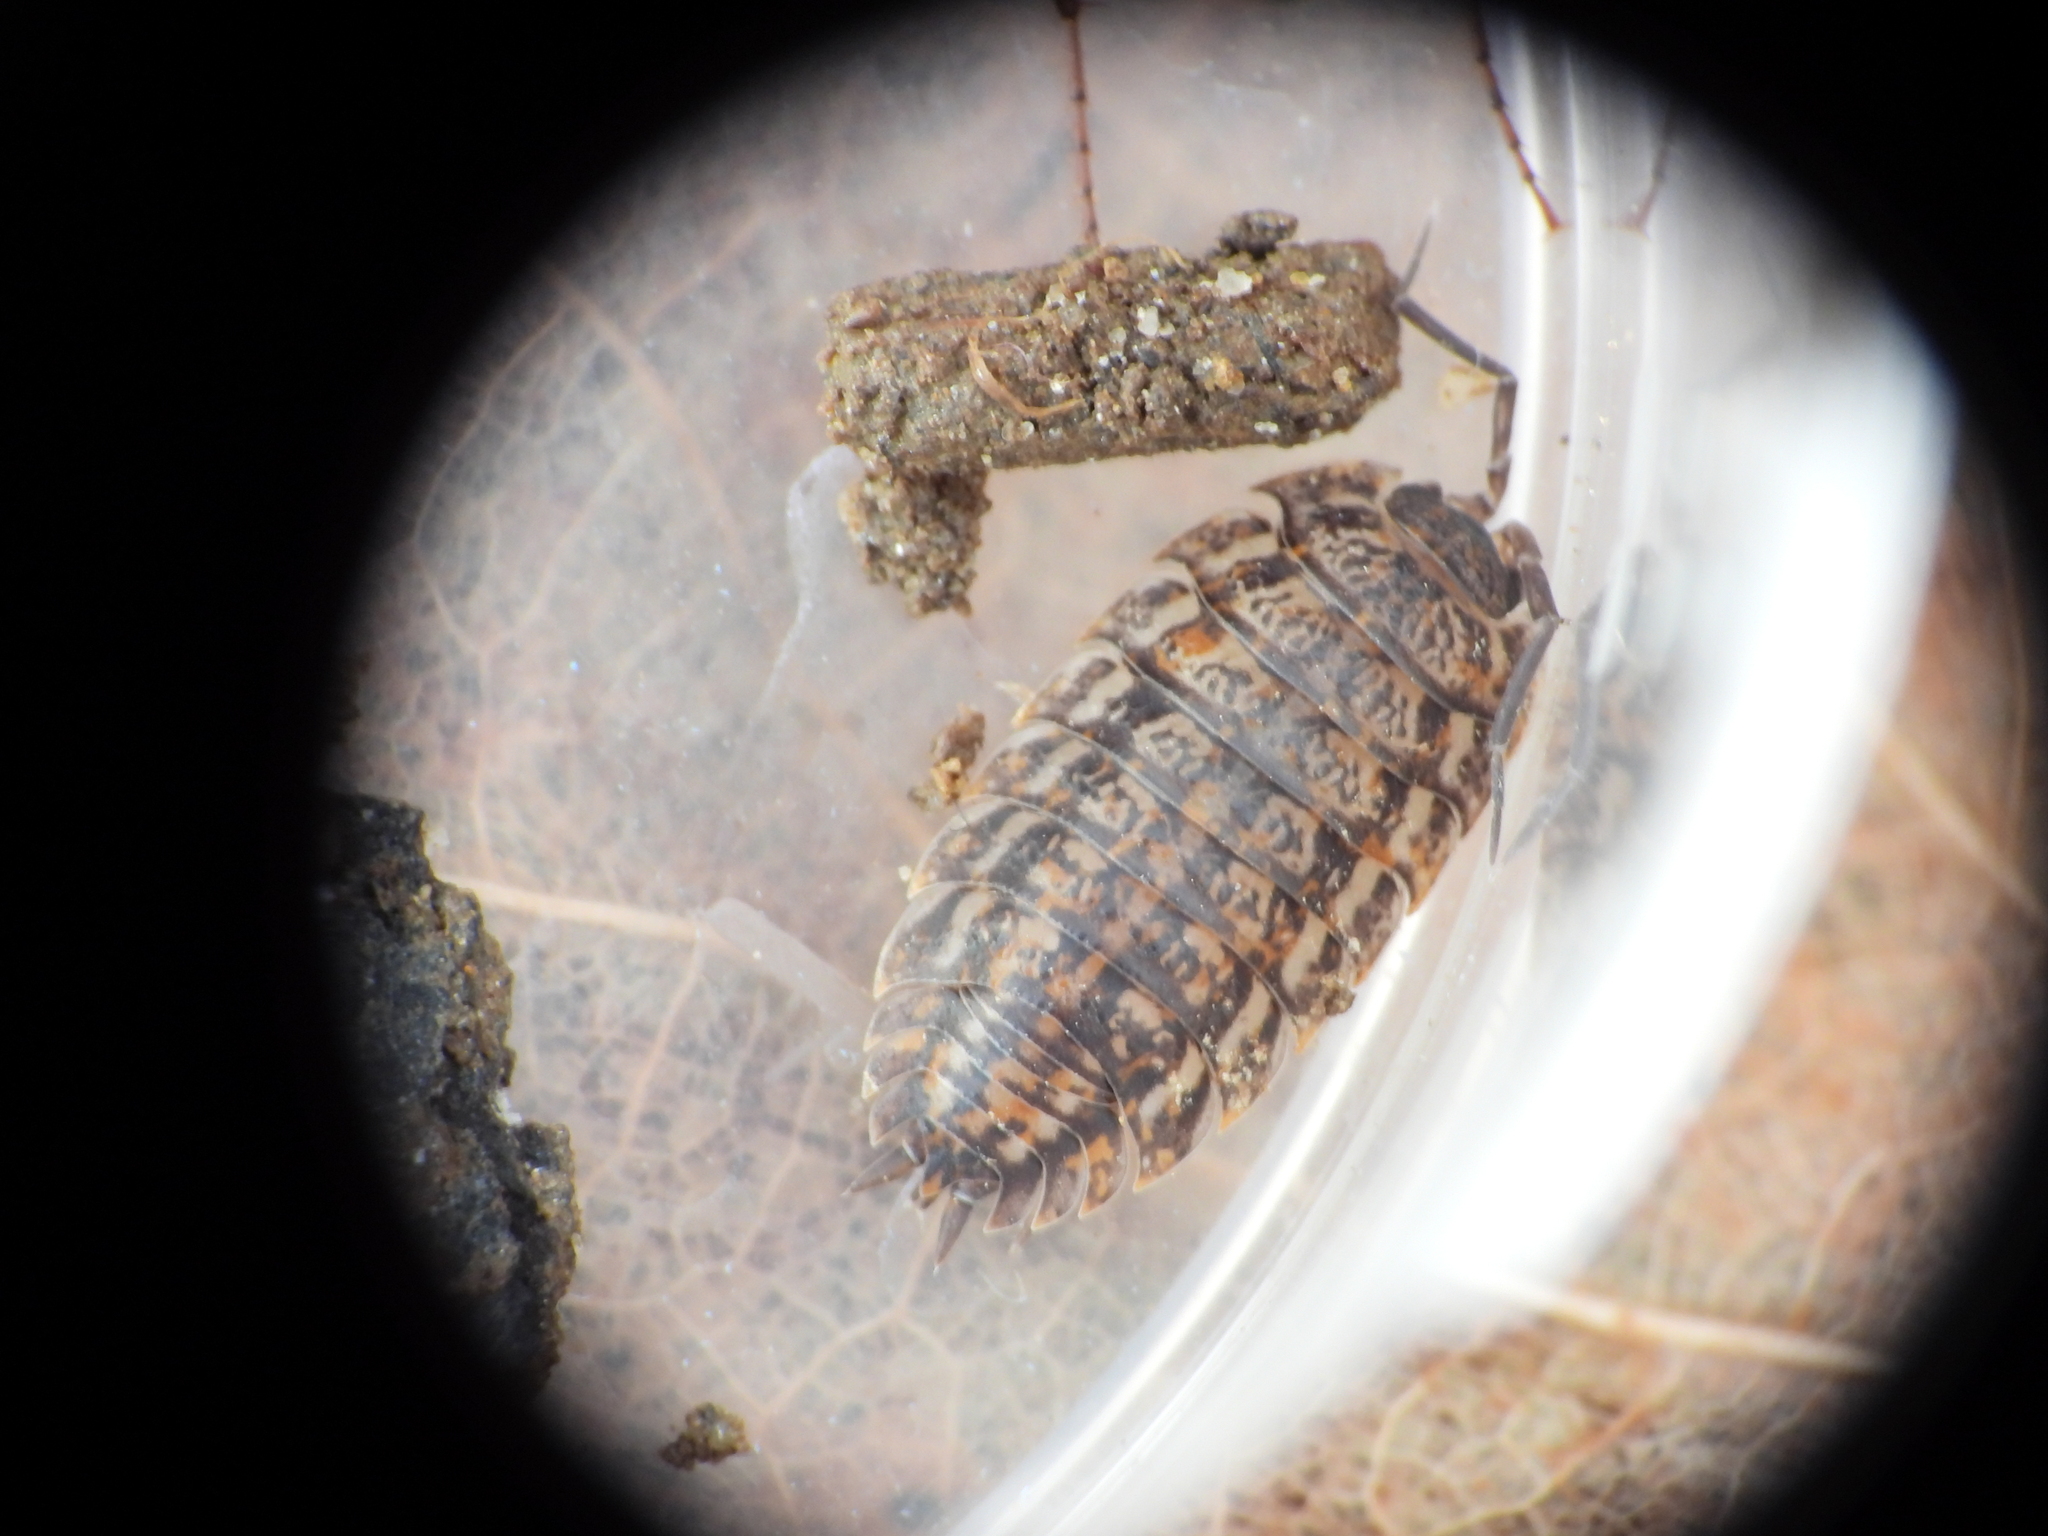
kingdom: Animalia
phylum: Arthropoda
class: Malacostraca
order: Isopoda
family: Trachelipodidae
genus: Trachelipus
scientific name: Trachelipus rathkii
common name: Isopod
